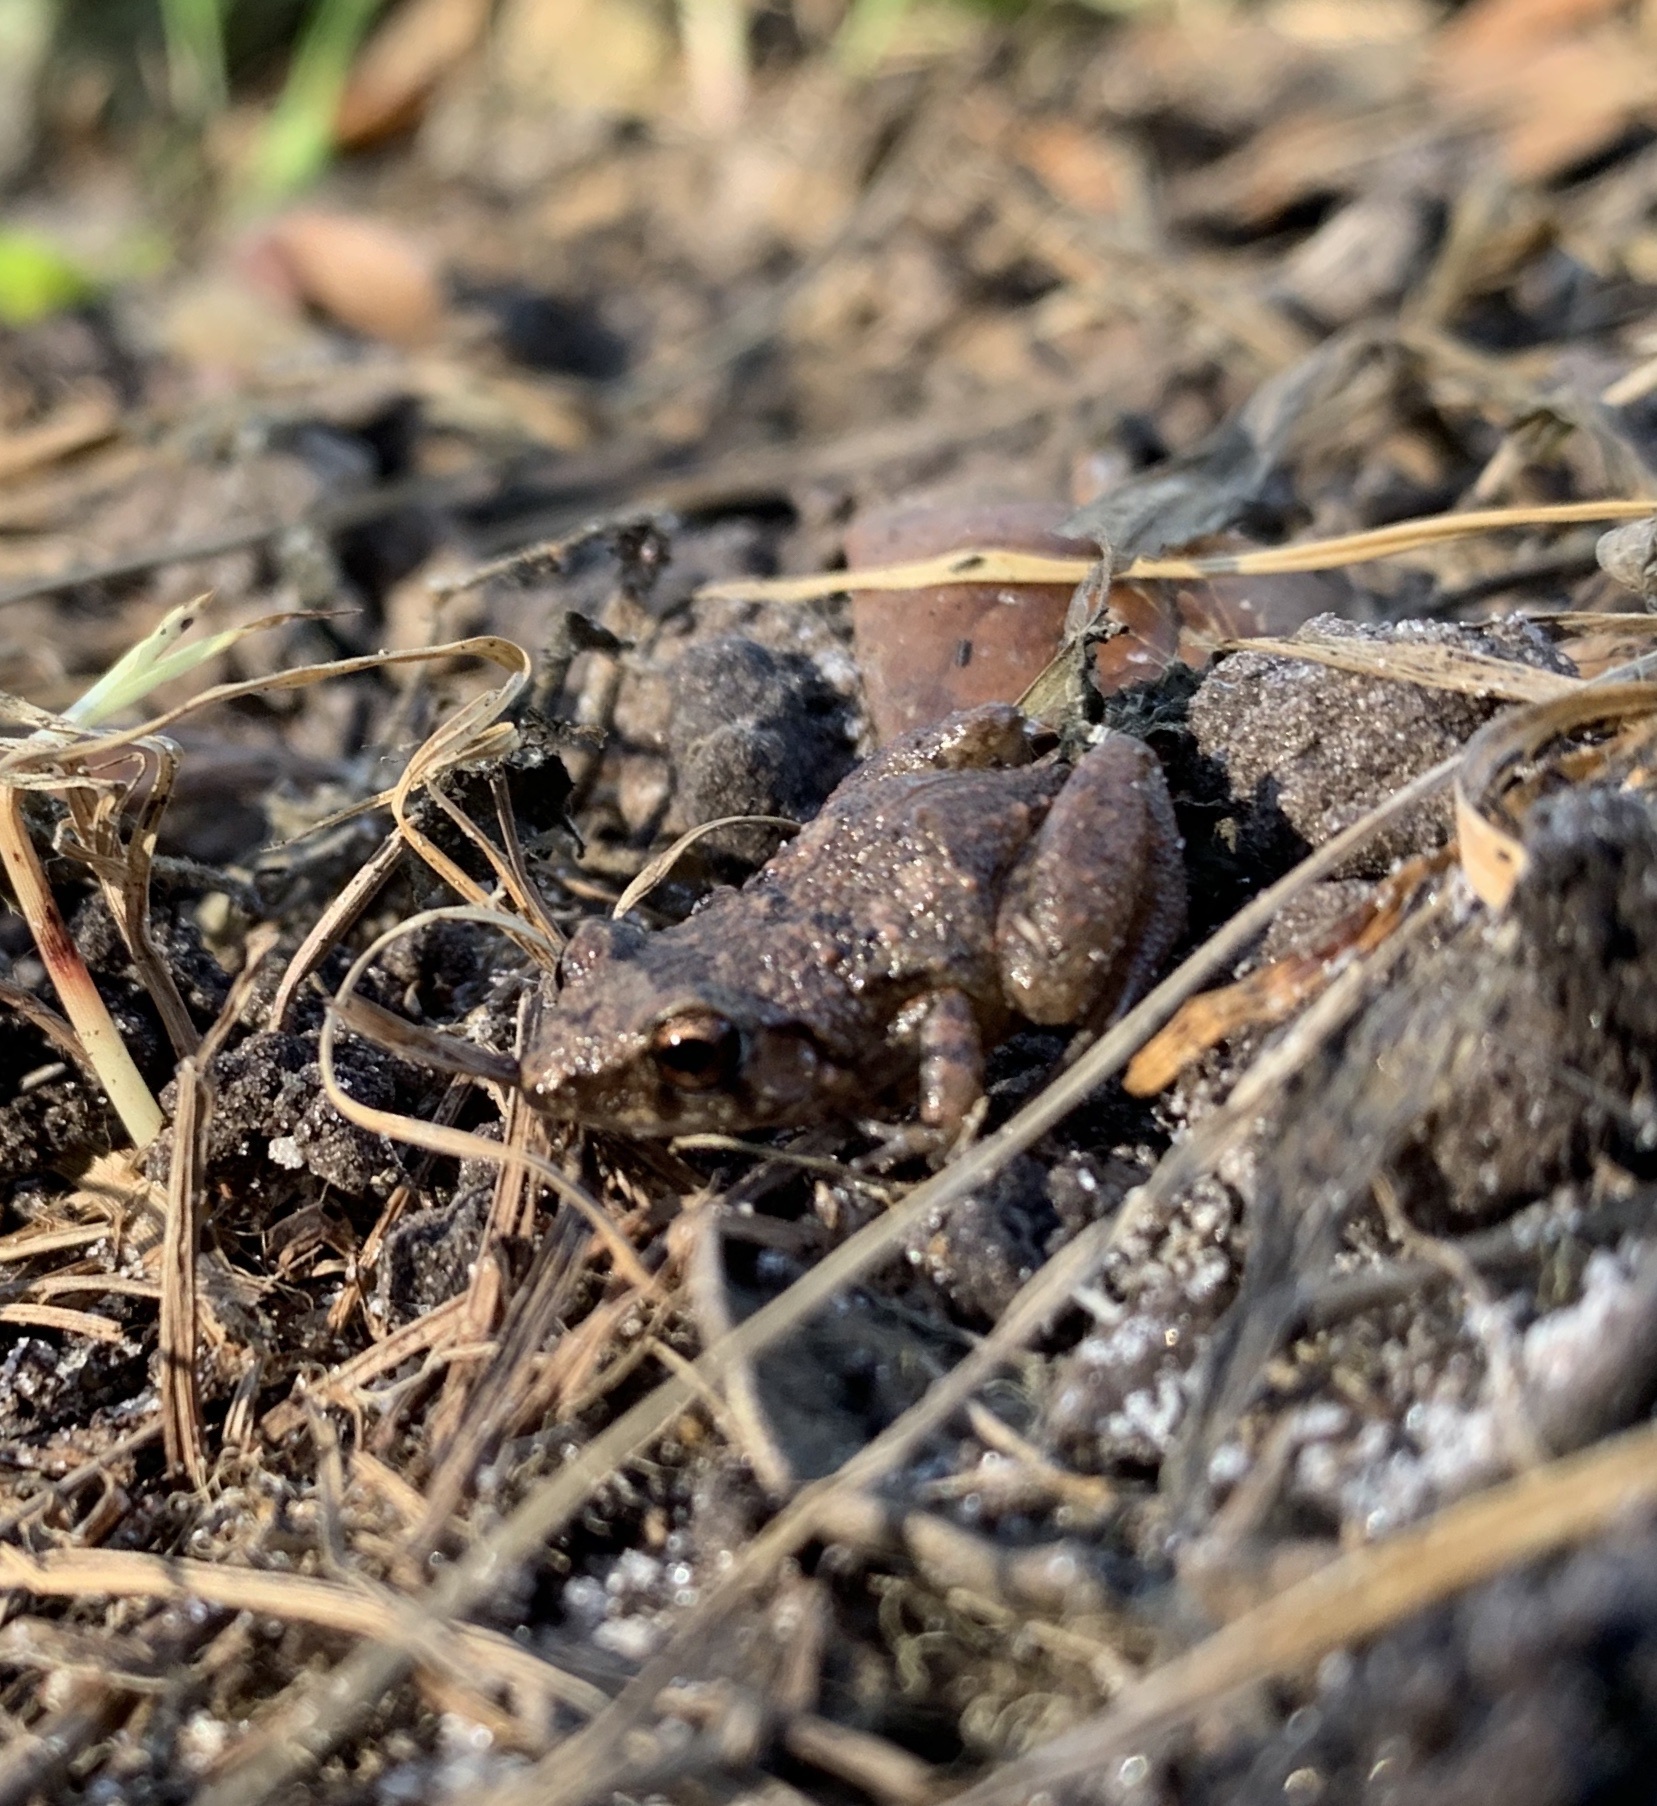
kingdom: Animalia
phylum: Chordata
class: Amphibia
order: Anura
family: Eleutherodactylidae
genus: Eleutherodactylus
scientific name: Eleutherodactylus planirostris
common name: Greenhouse frog
